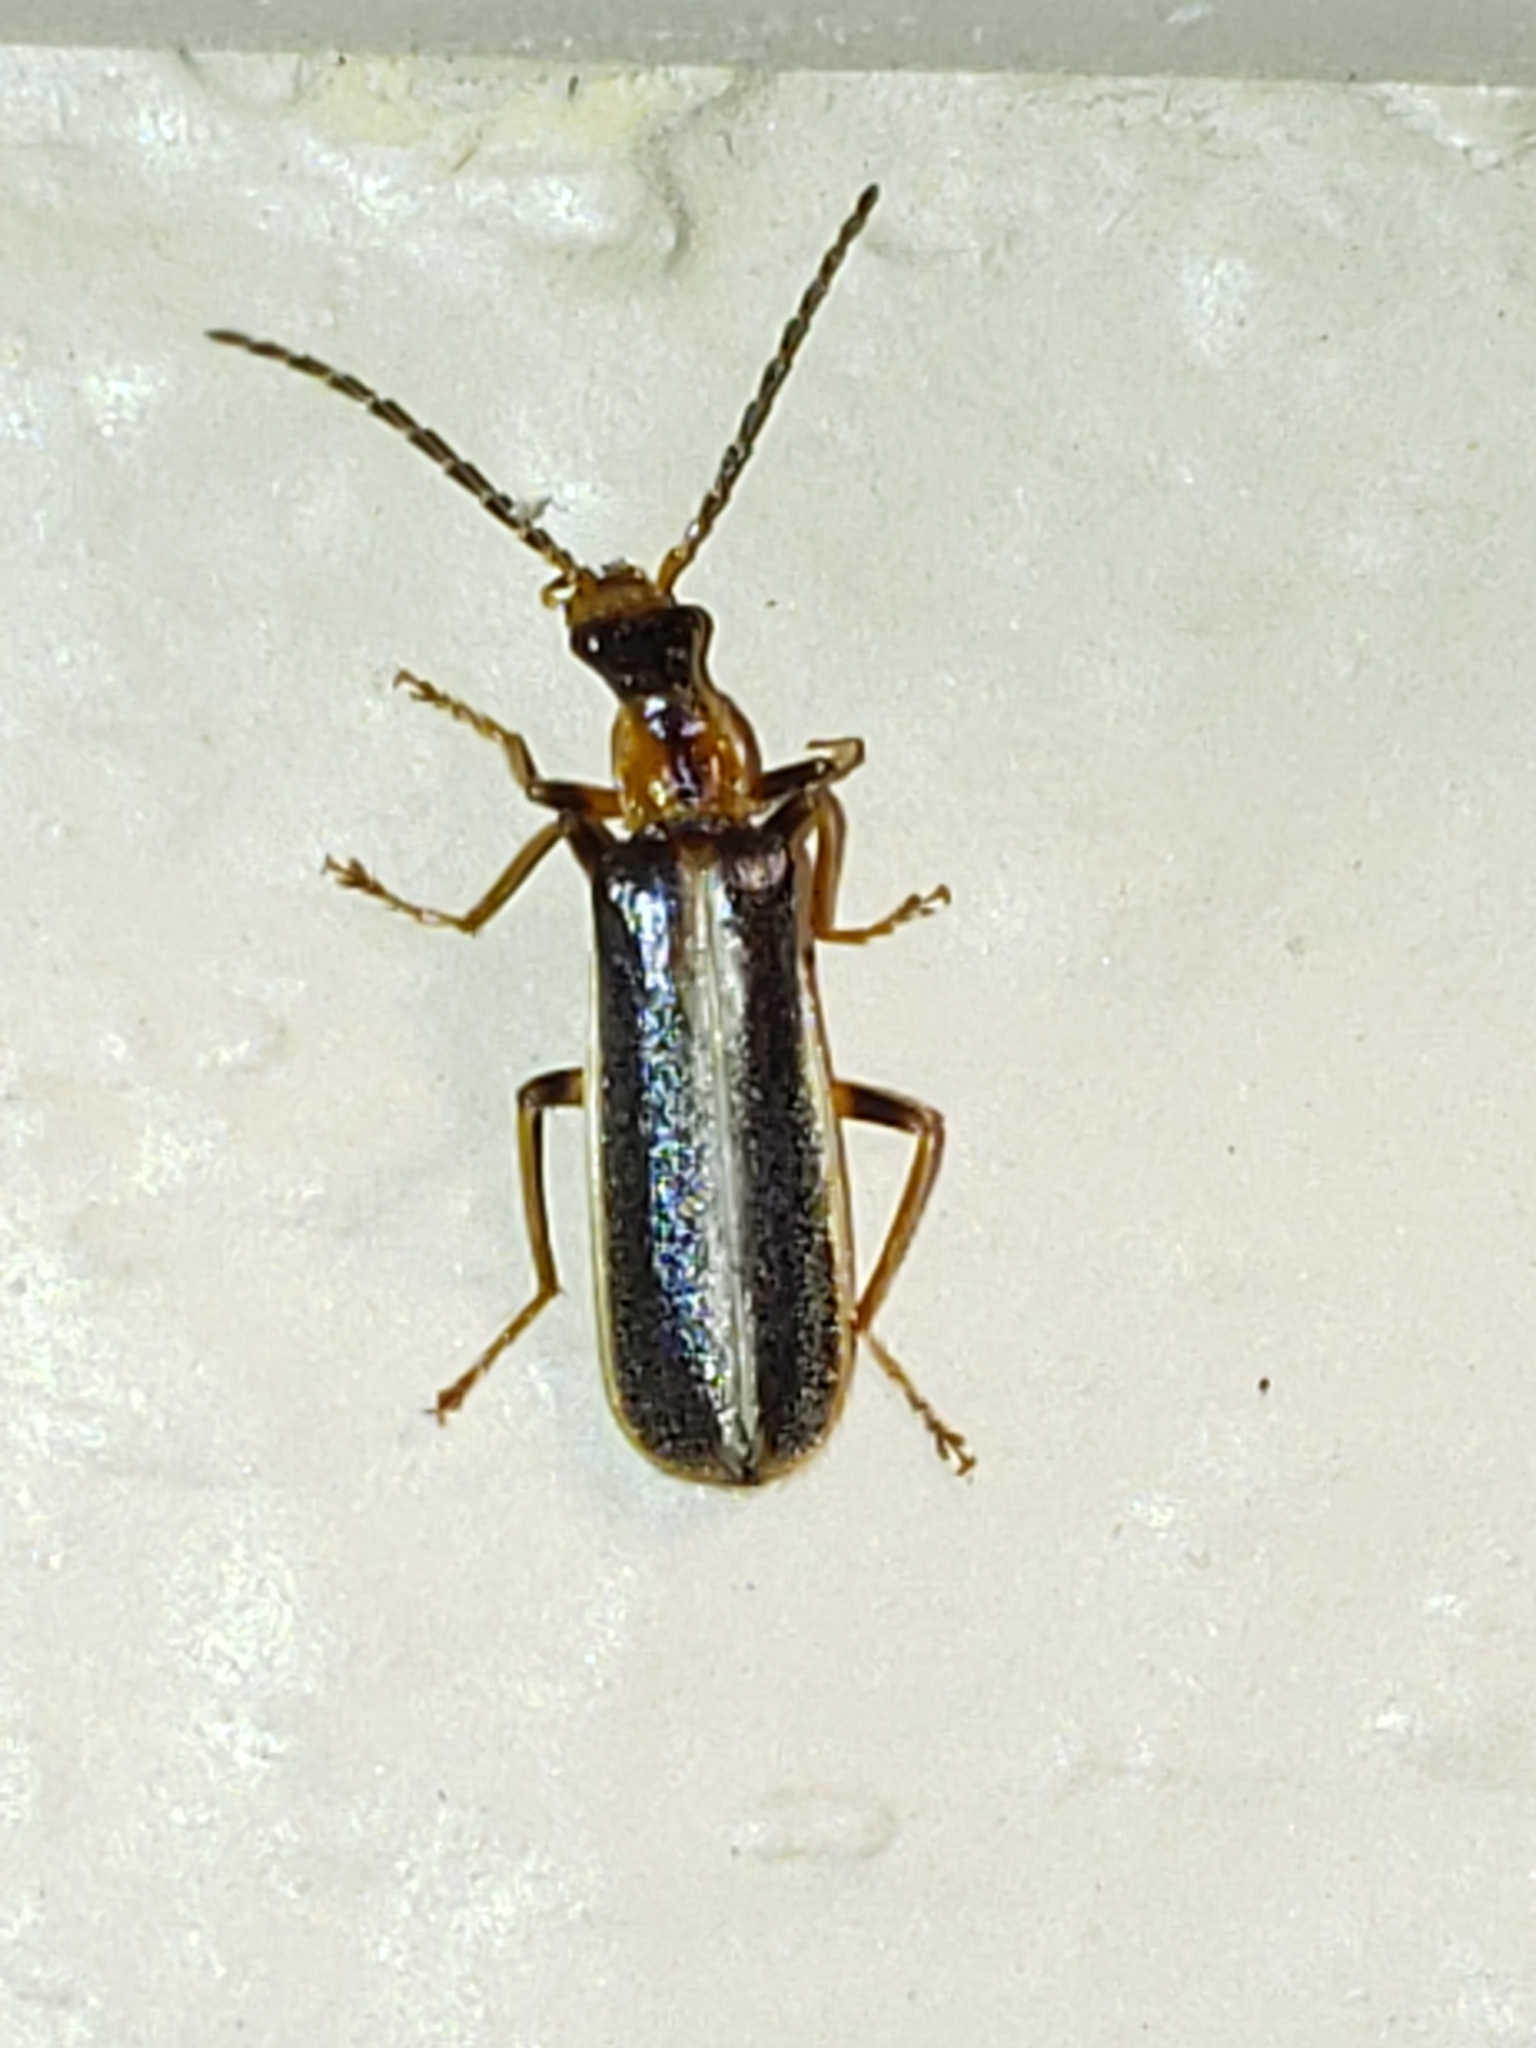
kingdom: Animalia
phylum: Arthropoda
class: Insecta
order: Coleoptera
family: Cantharidae
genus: Podabrus
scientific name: Podabrus brunnicollis
